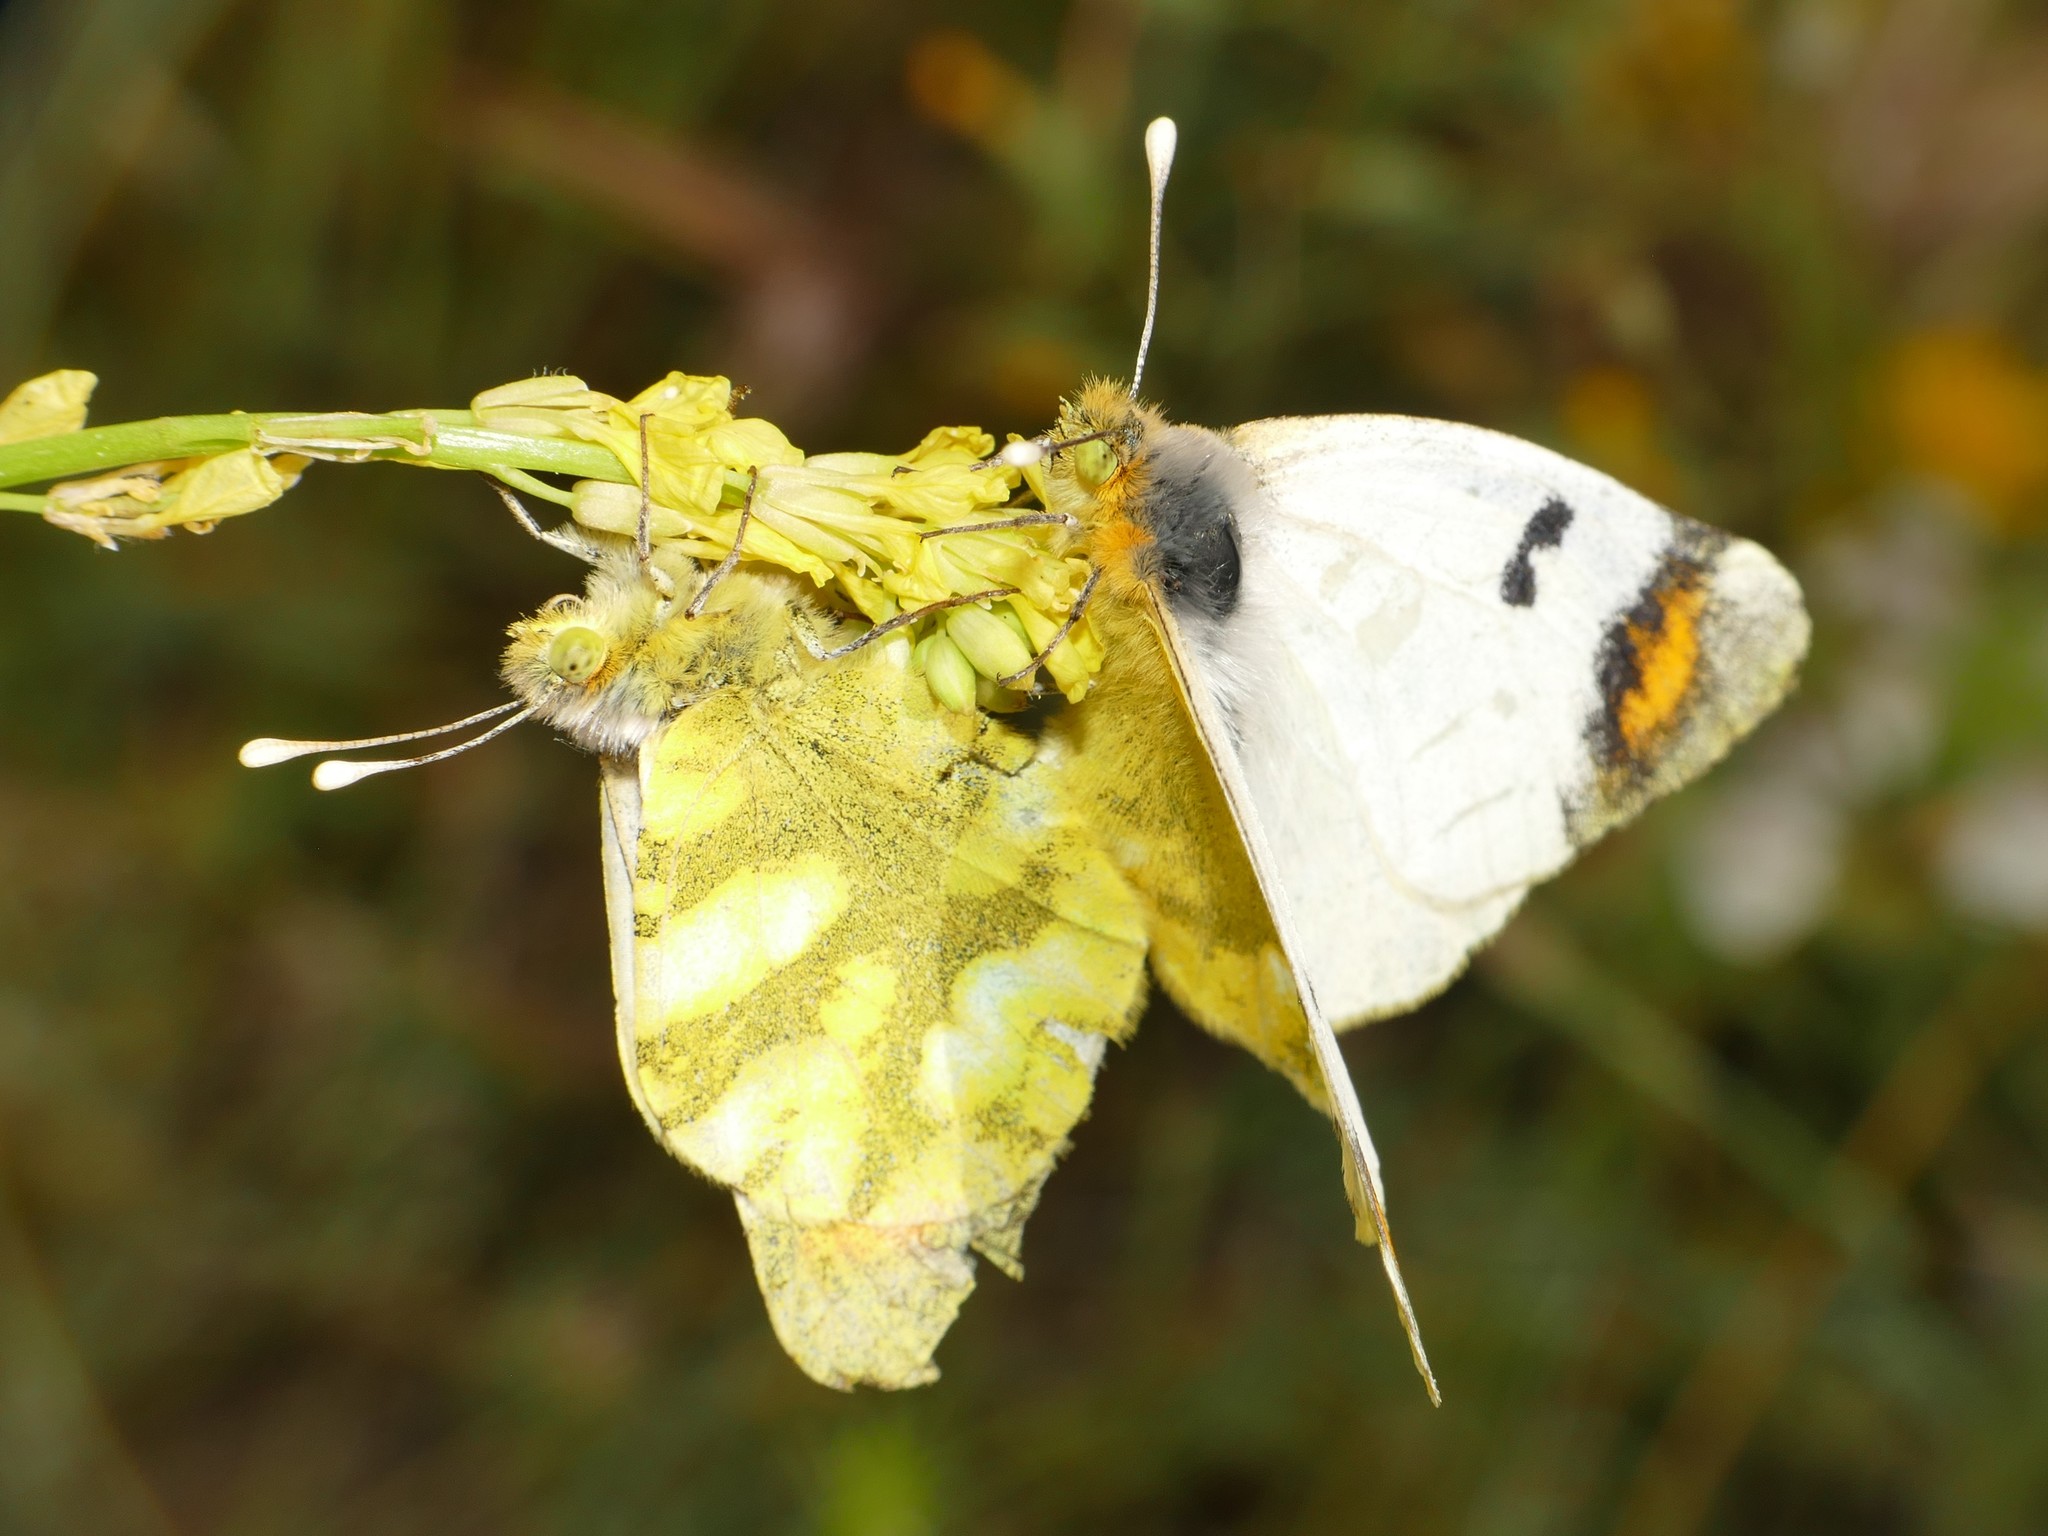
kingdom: Animalia
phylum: Arthropoda
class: Insecta
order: Lepidoptera
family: Pieridae
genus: Zegris
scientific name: Zegris eupheme
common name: Sooty orange tip
